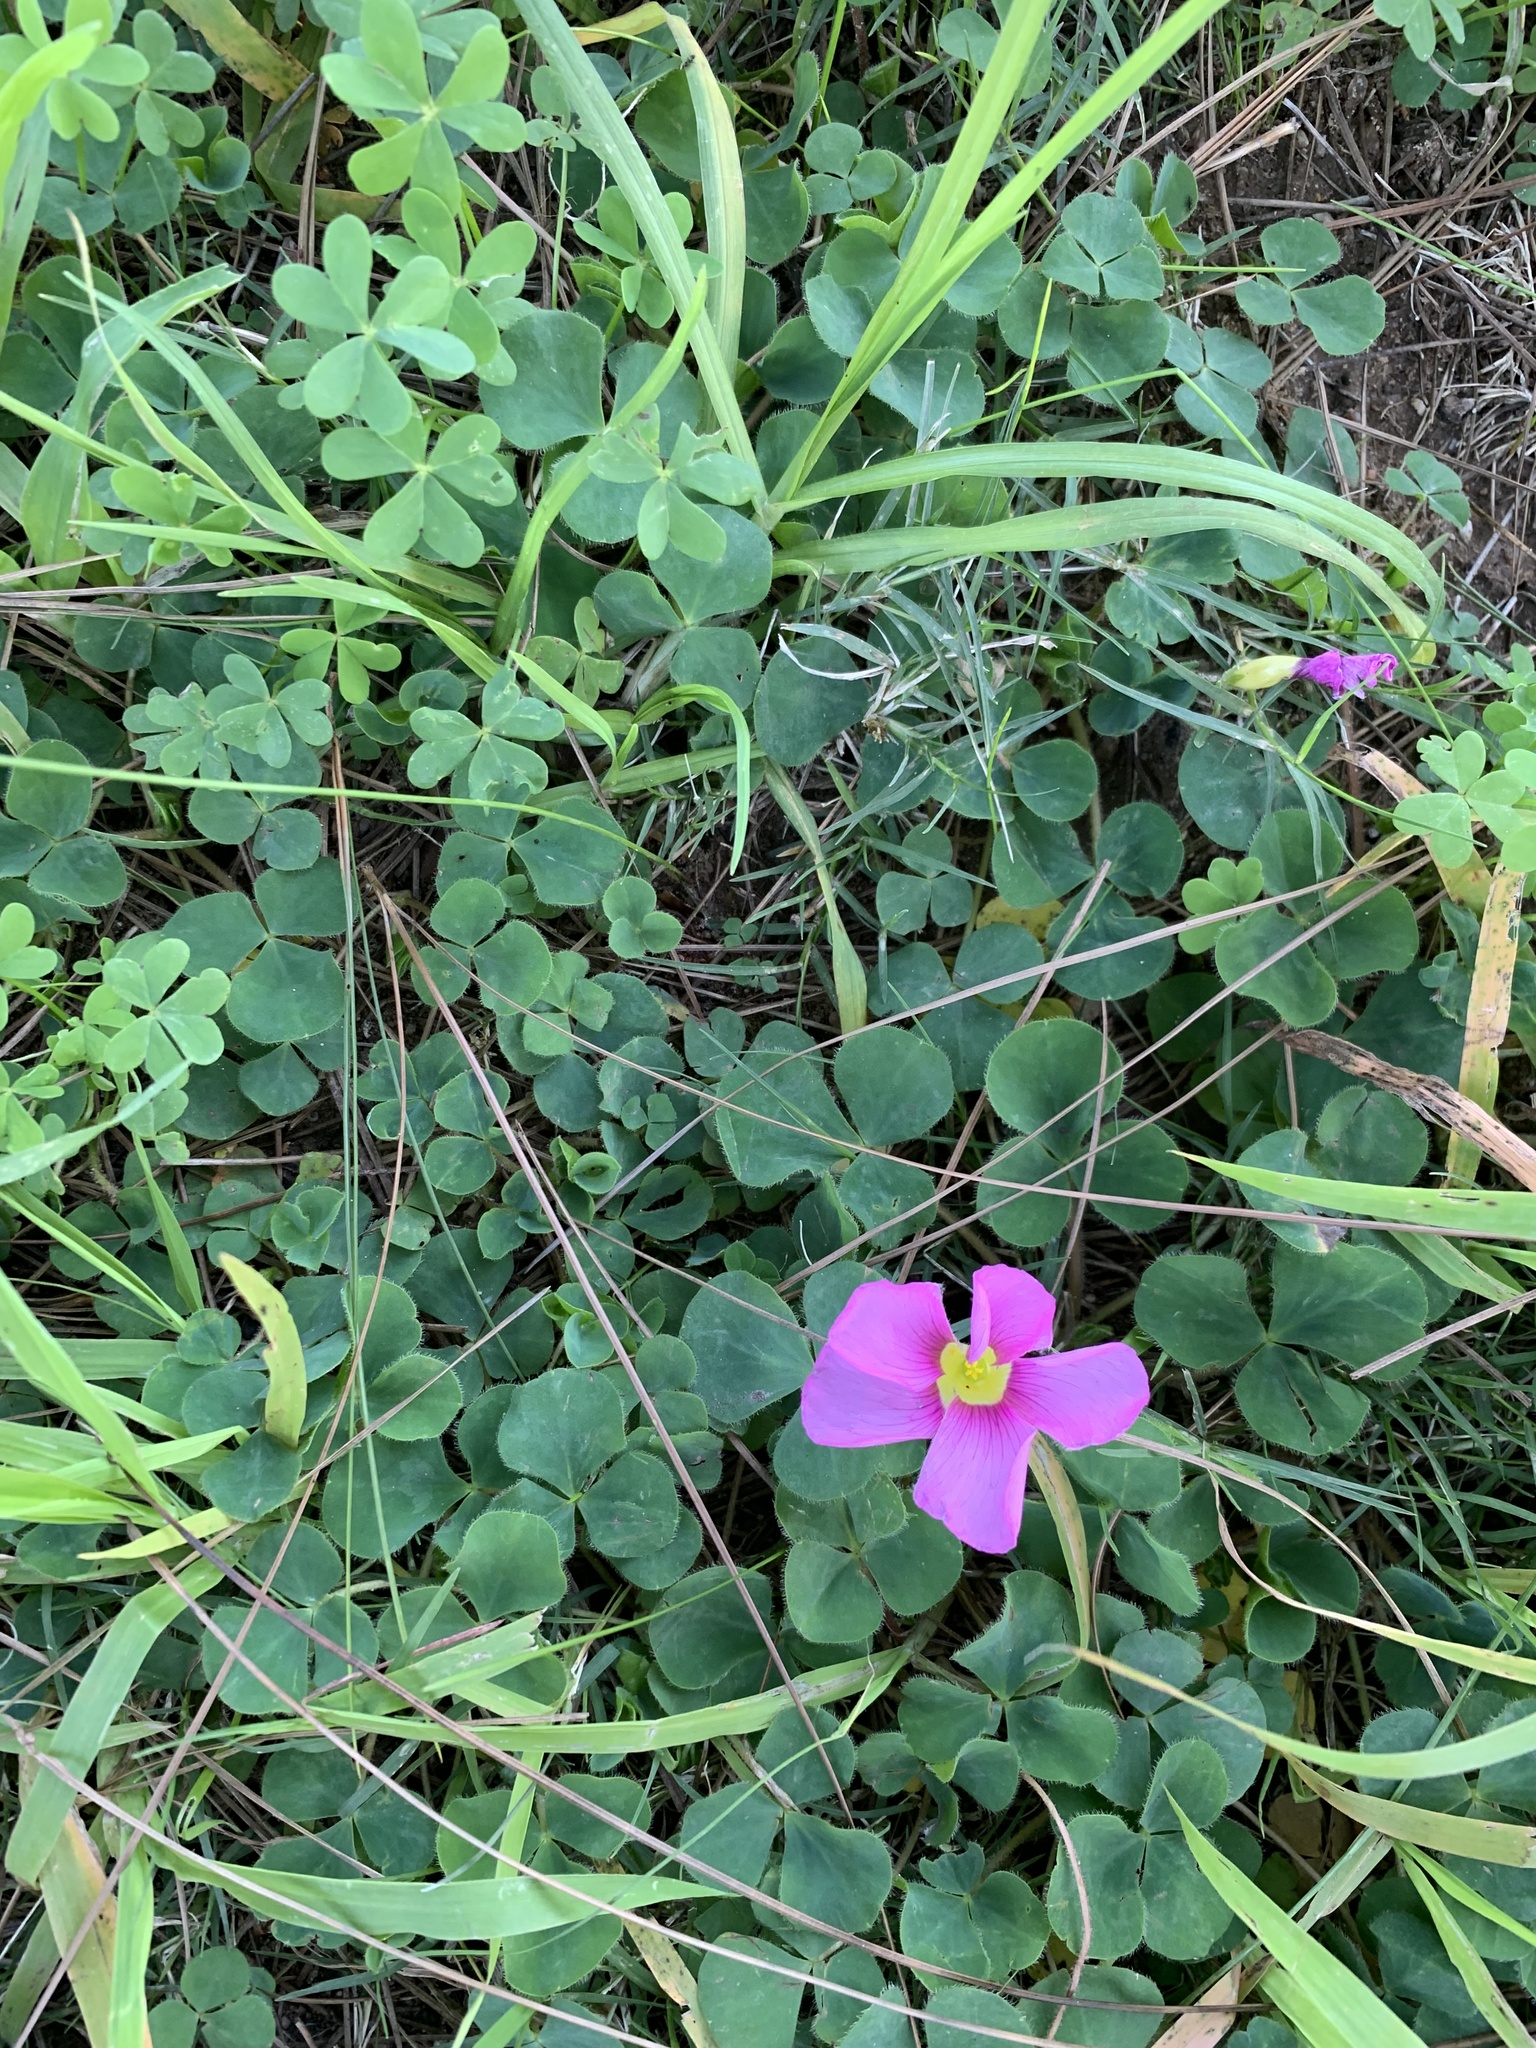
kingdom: Plantae
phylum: Tracheophyta
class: Magnoliopsida
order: Oxalidales
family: Oxalidaceae
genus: Oxalis
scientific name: Oxalis purpurea
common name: Purple woodsorrel
